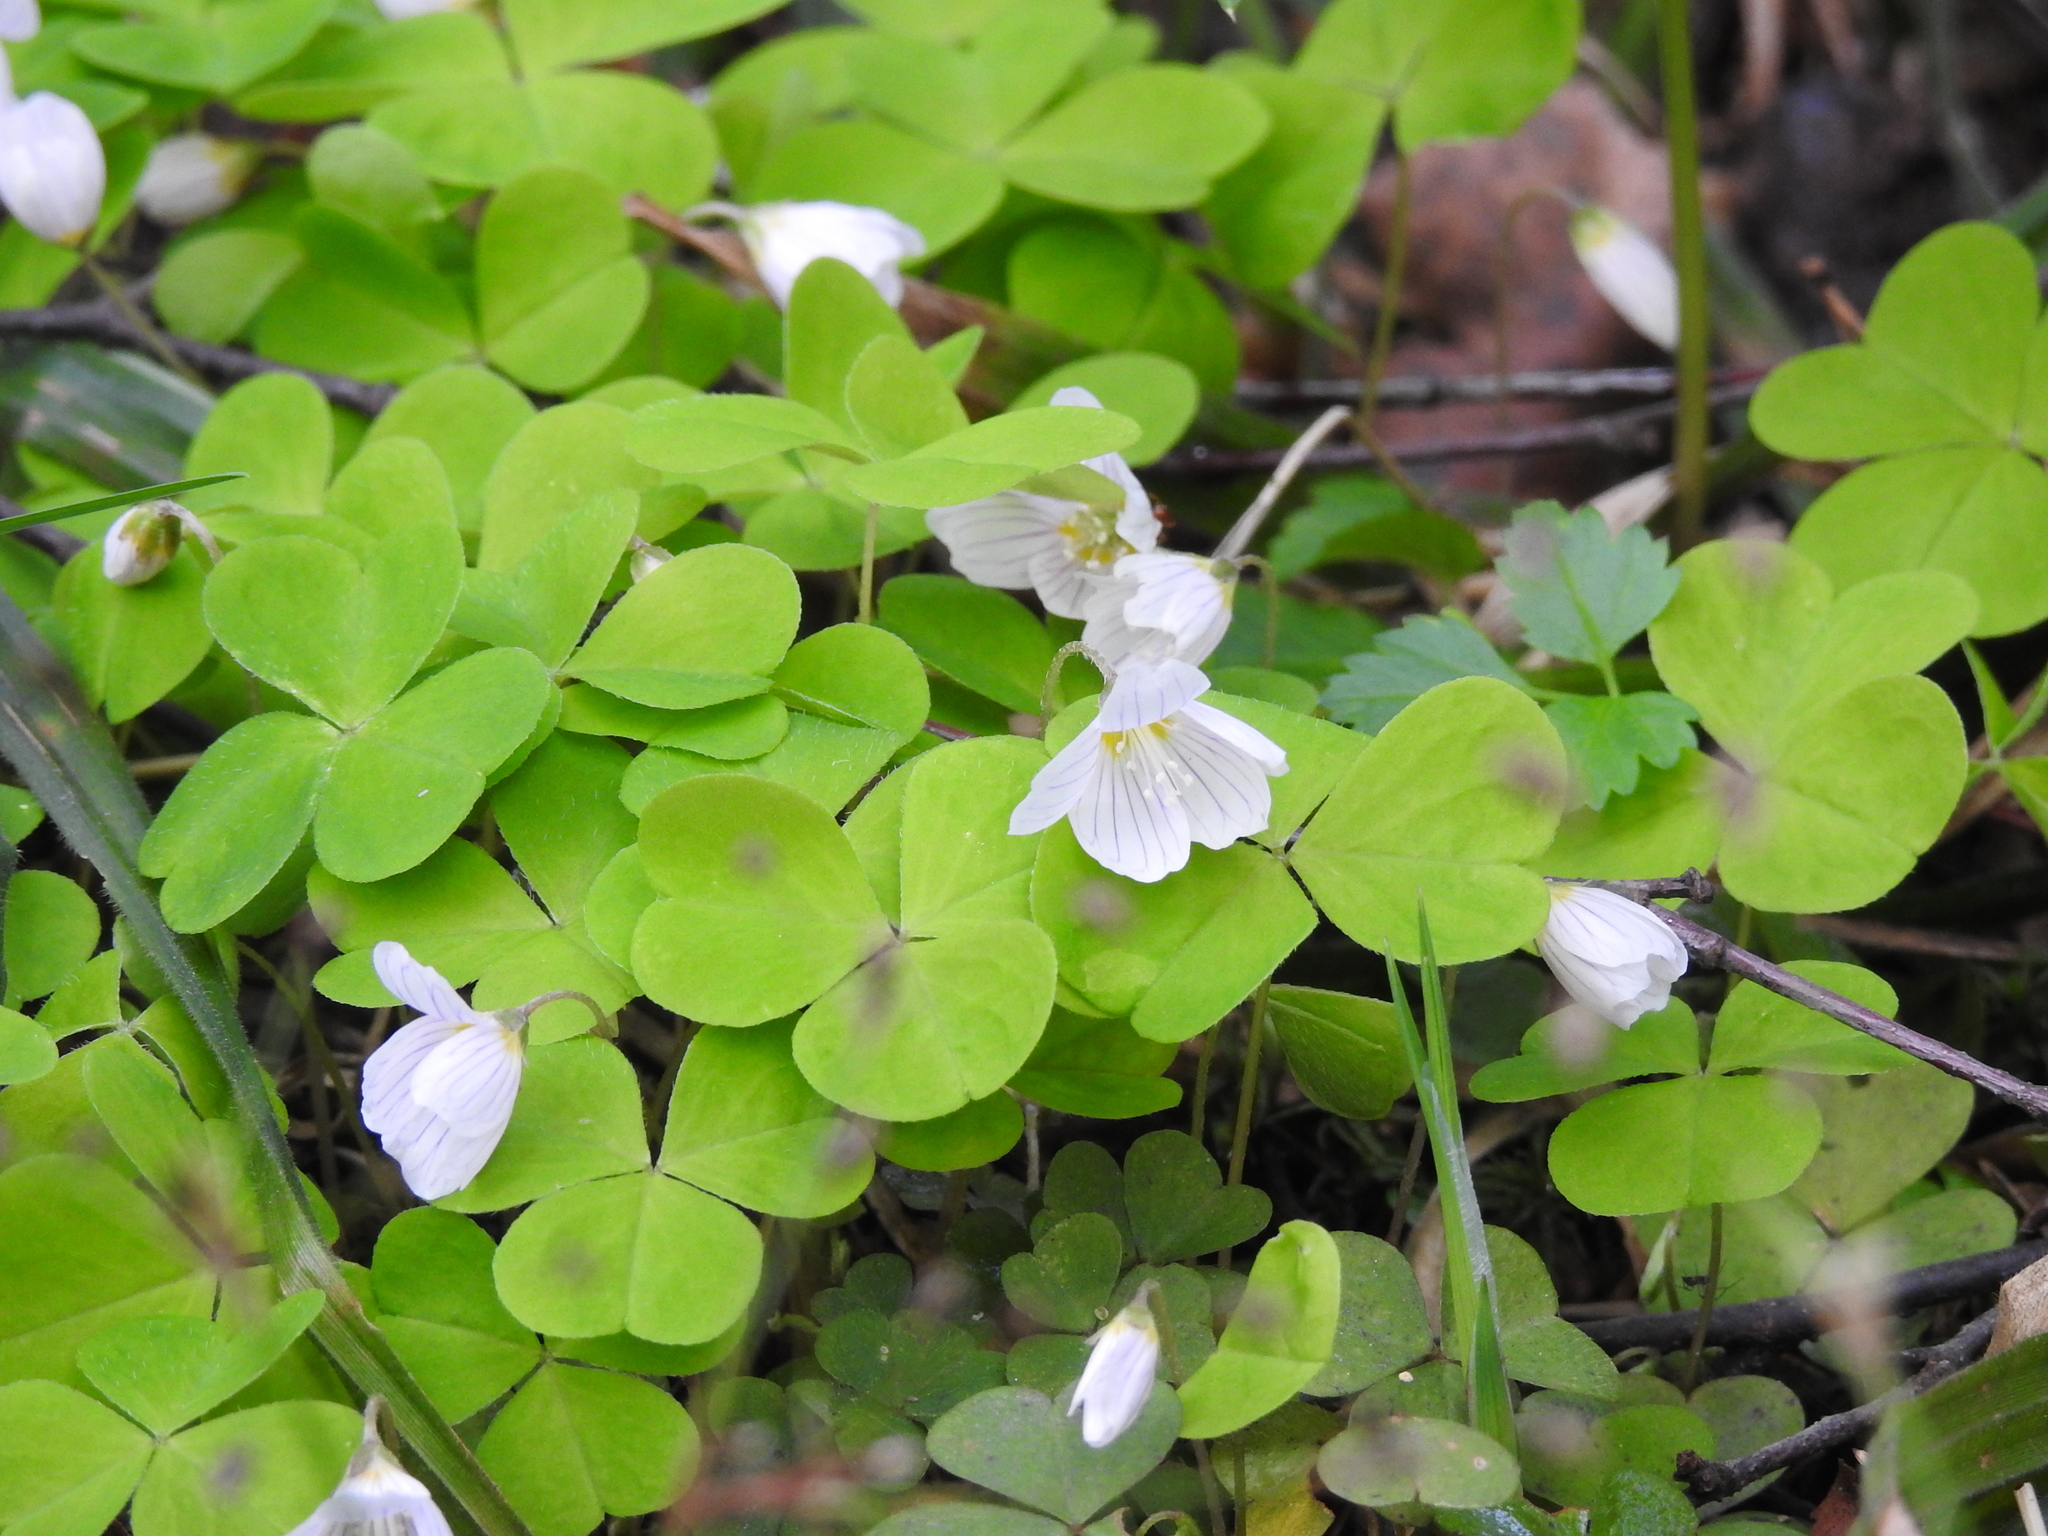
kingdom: Plantae
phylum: Tracheophyta
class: Magnoliopsida
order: Oxalidales
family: Oxalidaceae
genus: Oxalis
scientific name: Oxalis acetosella
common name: Wood-sorrel
